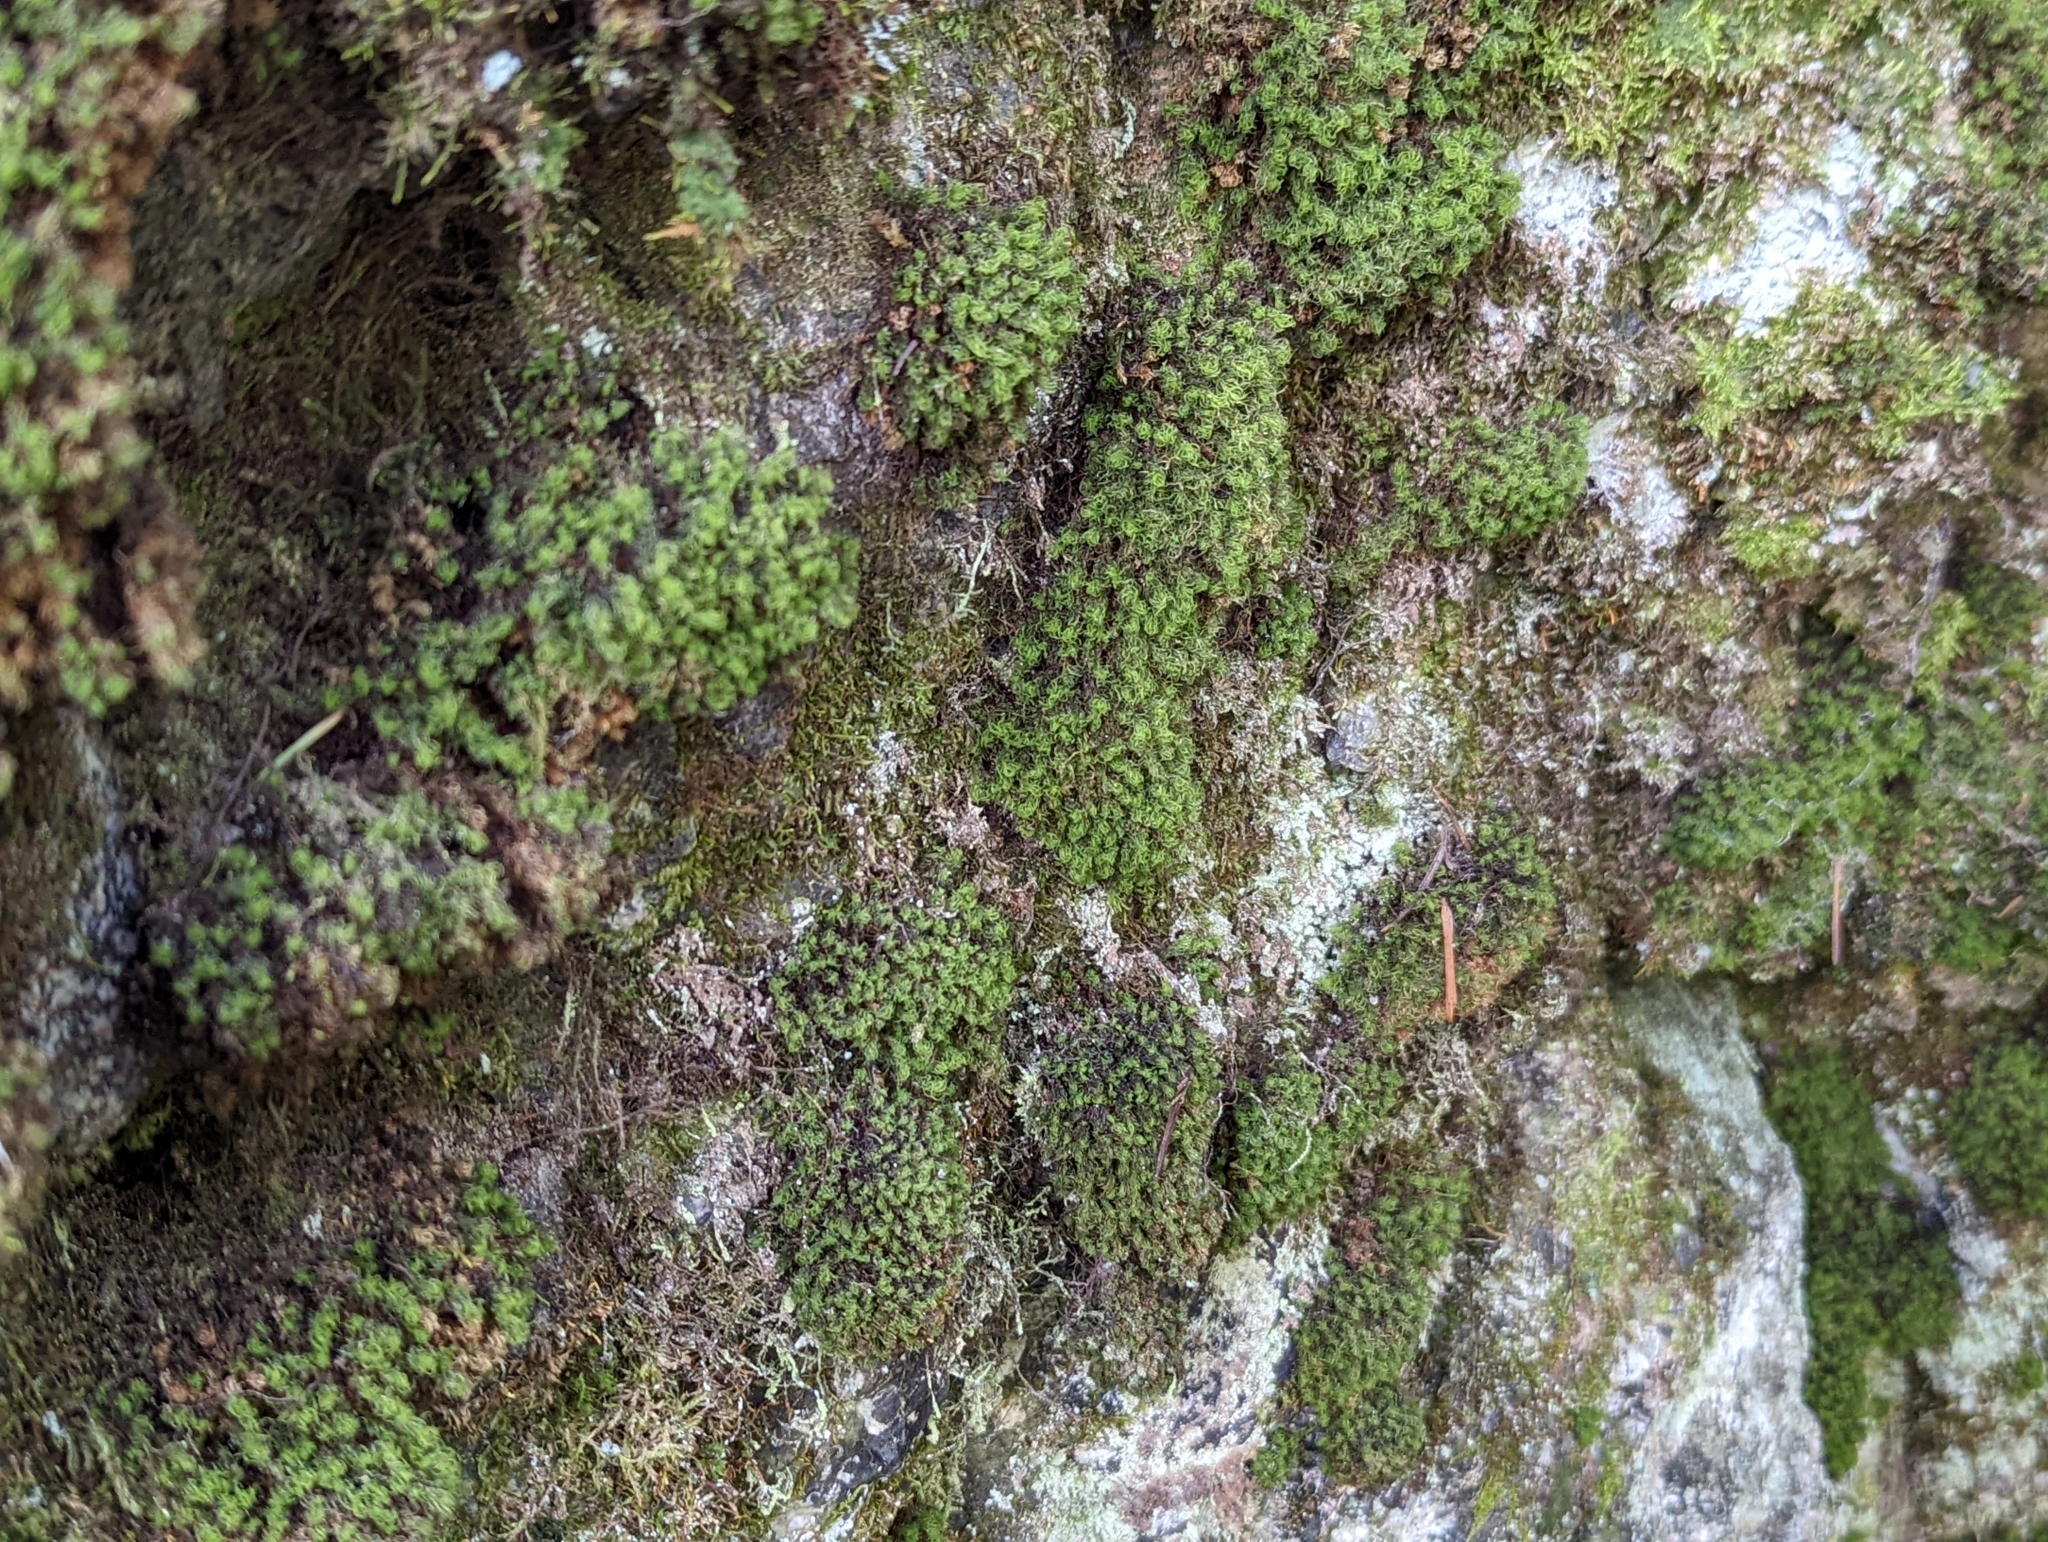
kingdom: Plantae
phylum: Bryophyta
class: Bryopsida
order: Bartramiales
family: Bartramiaceae
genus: Anacolia
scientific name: Anacolia menziesii
